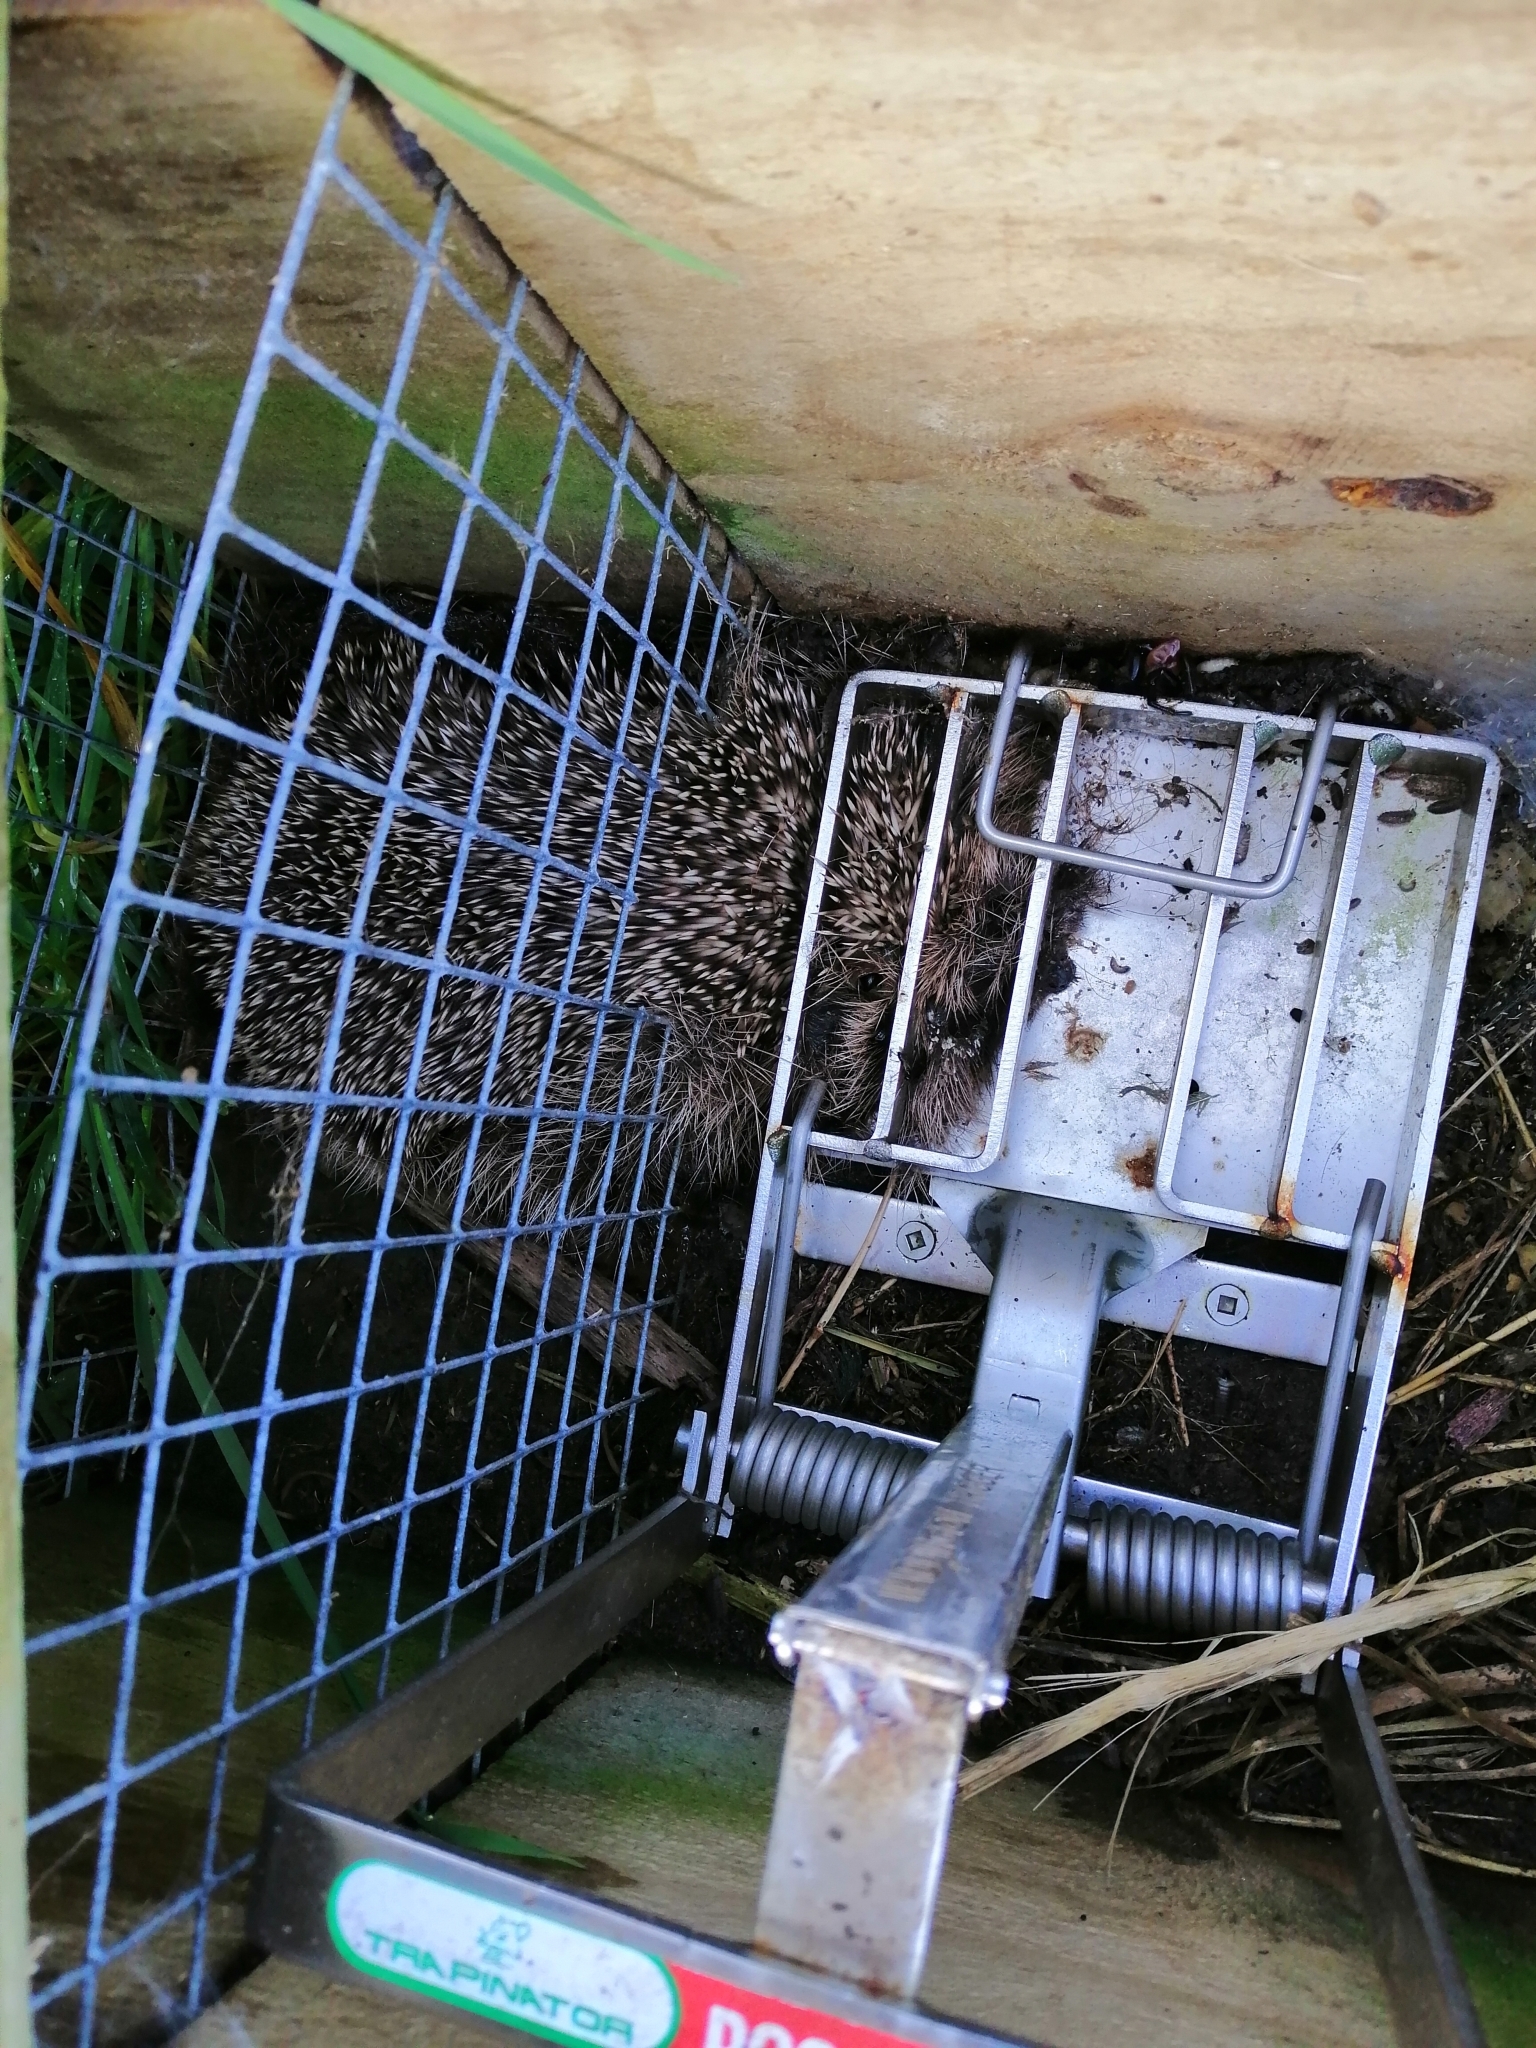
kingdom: Animalia
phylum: Chordata
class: Mammalia
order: Erinaceomorpha
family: Erinaceidae
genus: Erinaceus
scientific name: Erinaceus europaeus
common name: West european hedgehog
